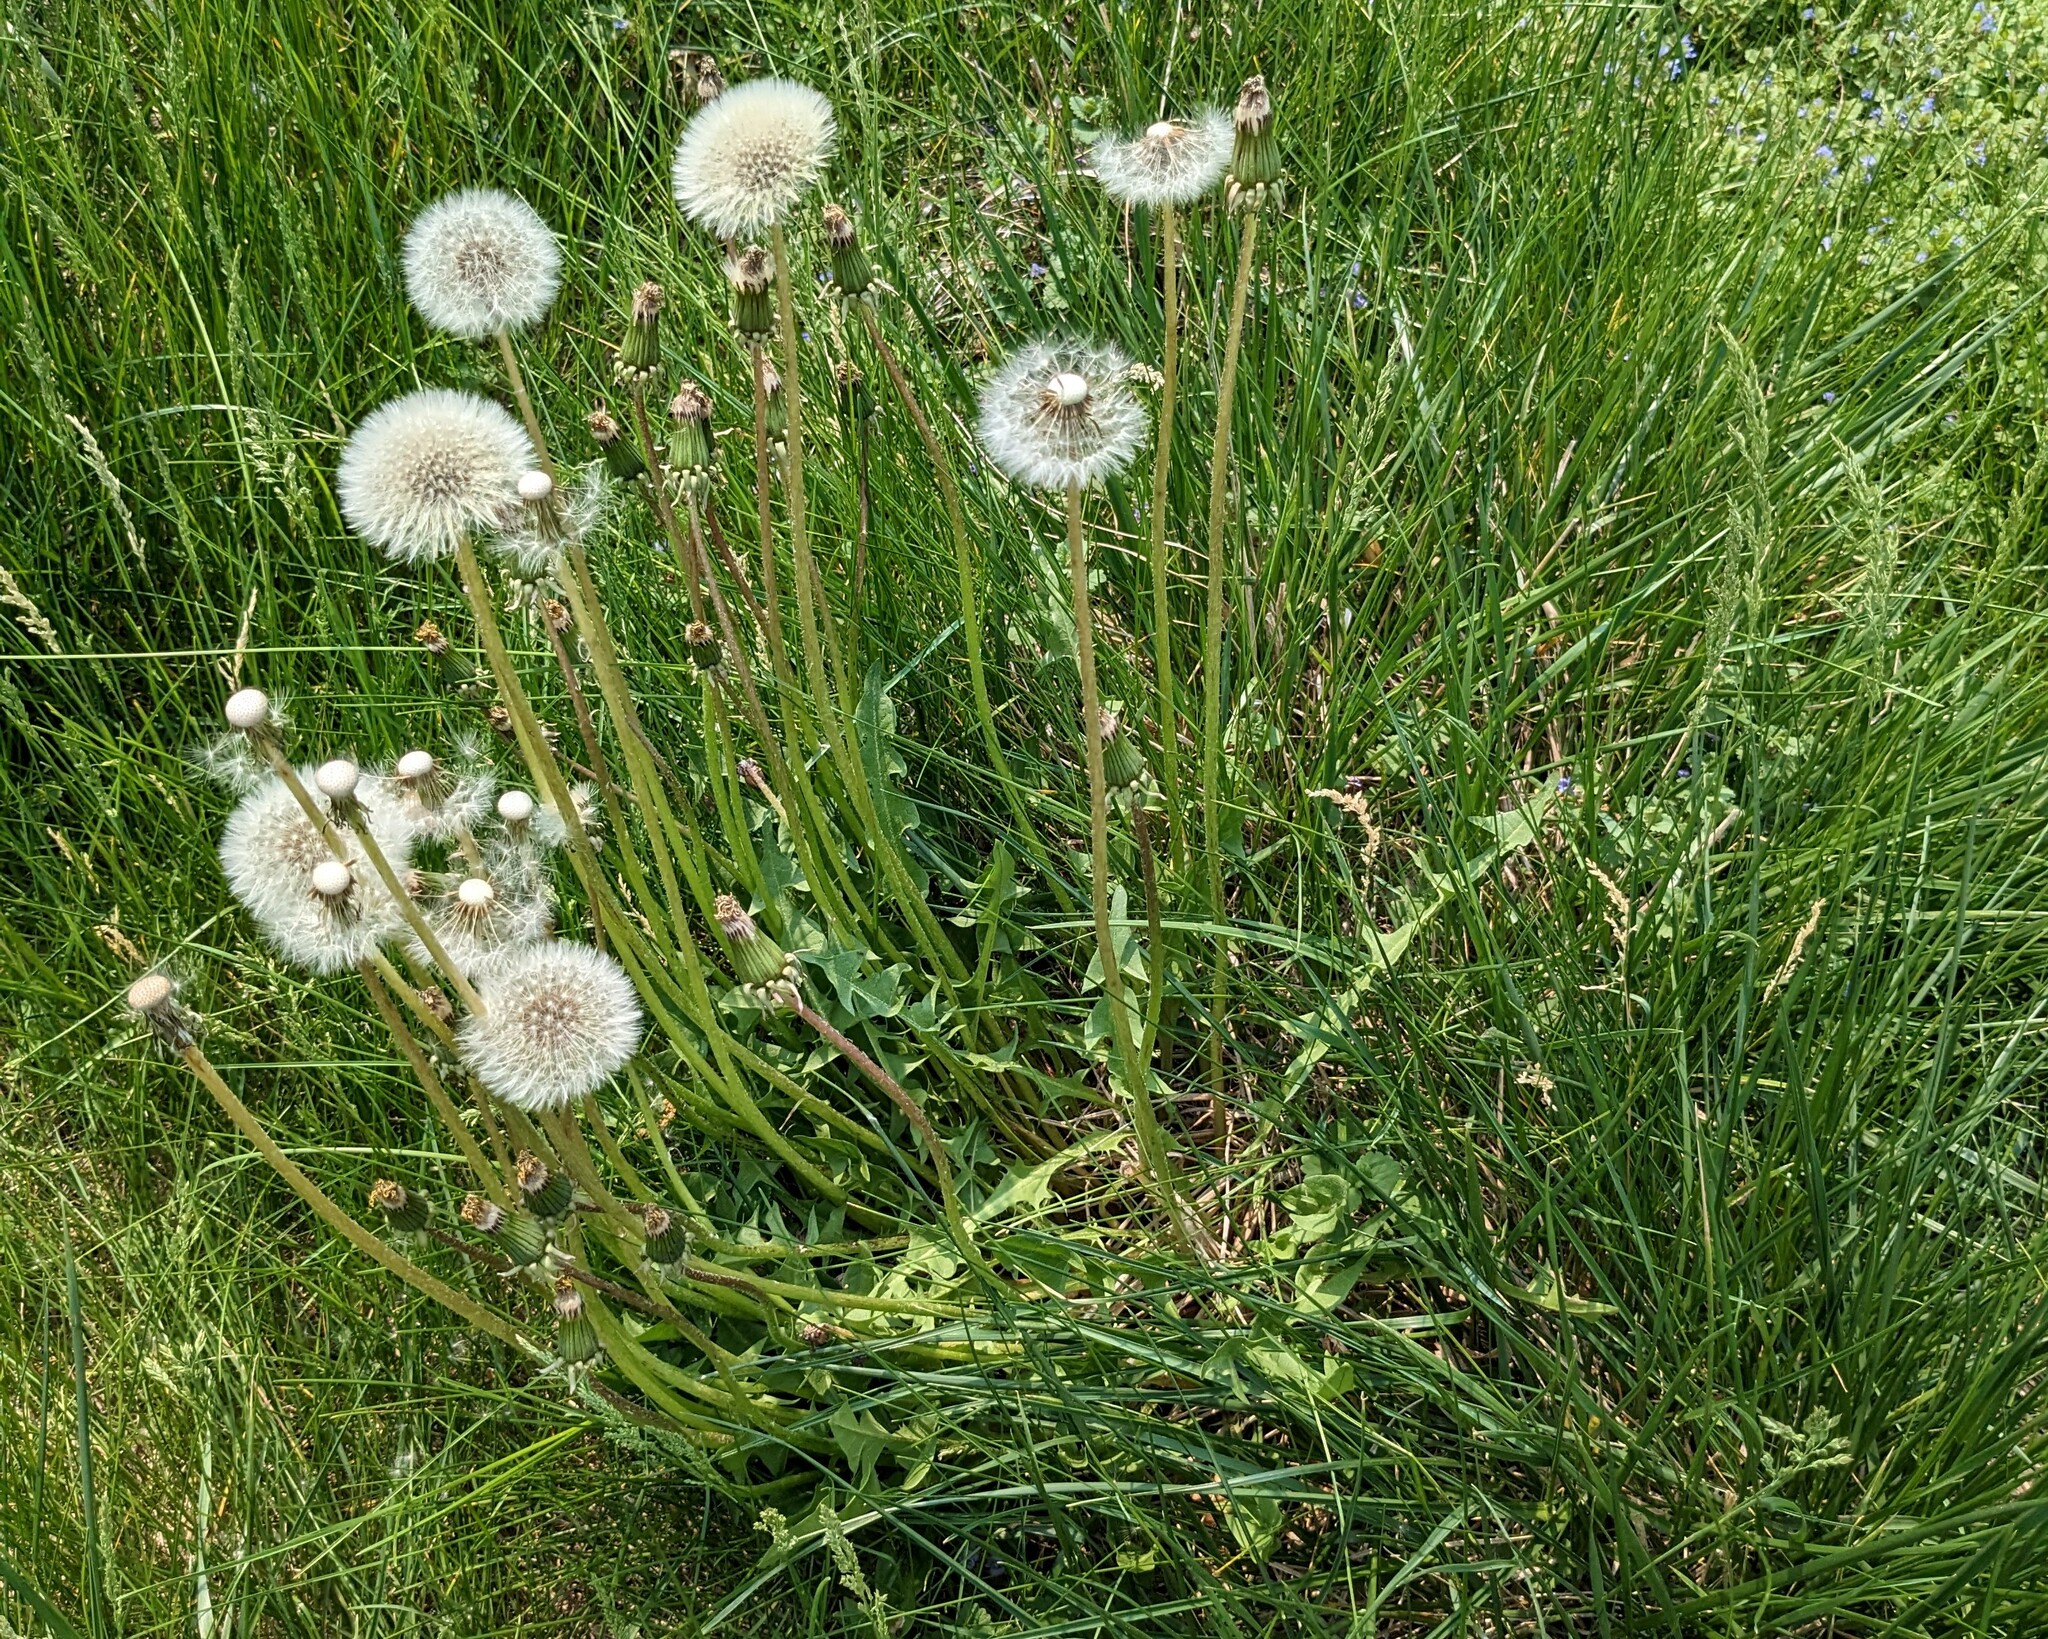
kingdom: Plantae
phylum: Tracheophyta
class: Magnoliopsida
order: Asterales
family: Asteraceae
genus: Taraxacum
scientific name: Taraxacum officinale
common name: Common dandelion
